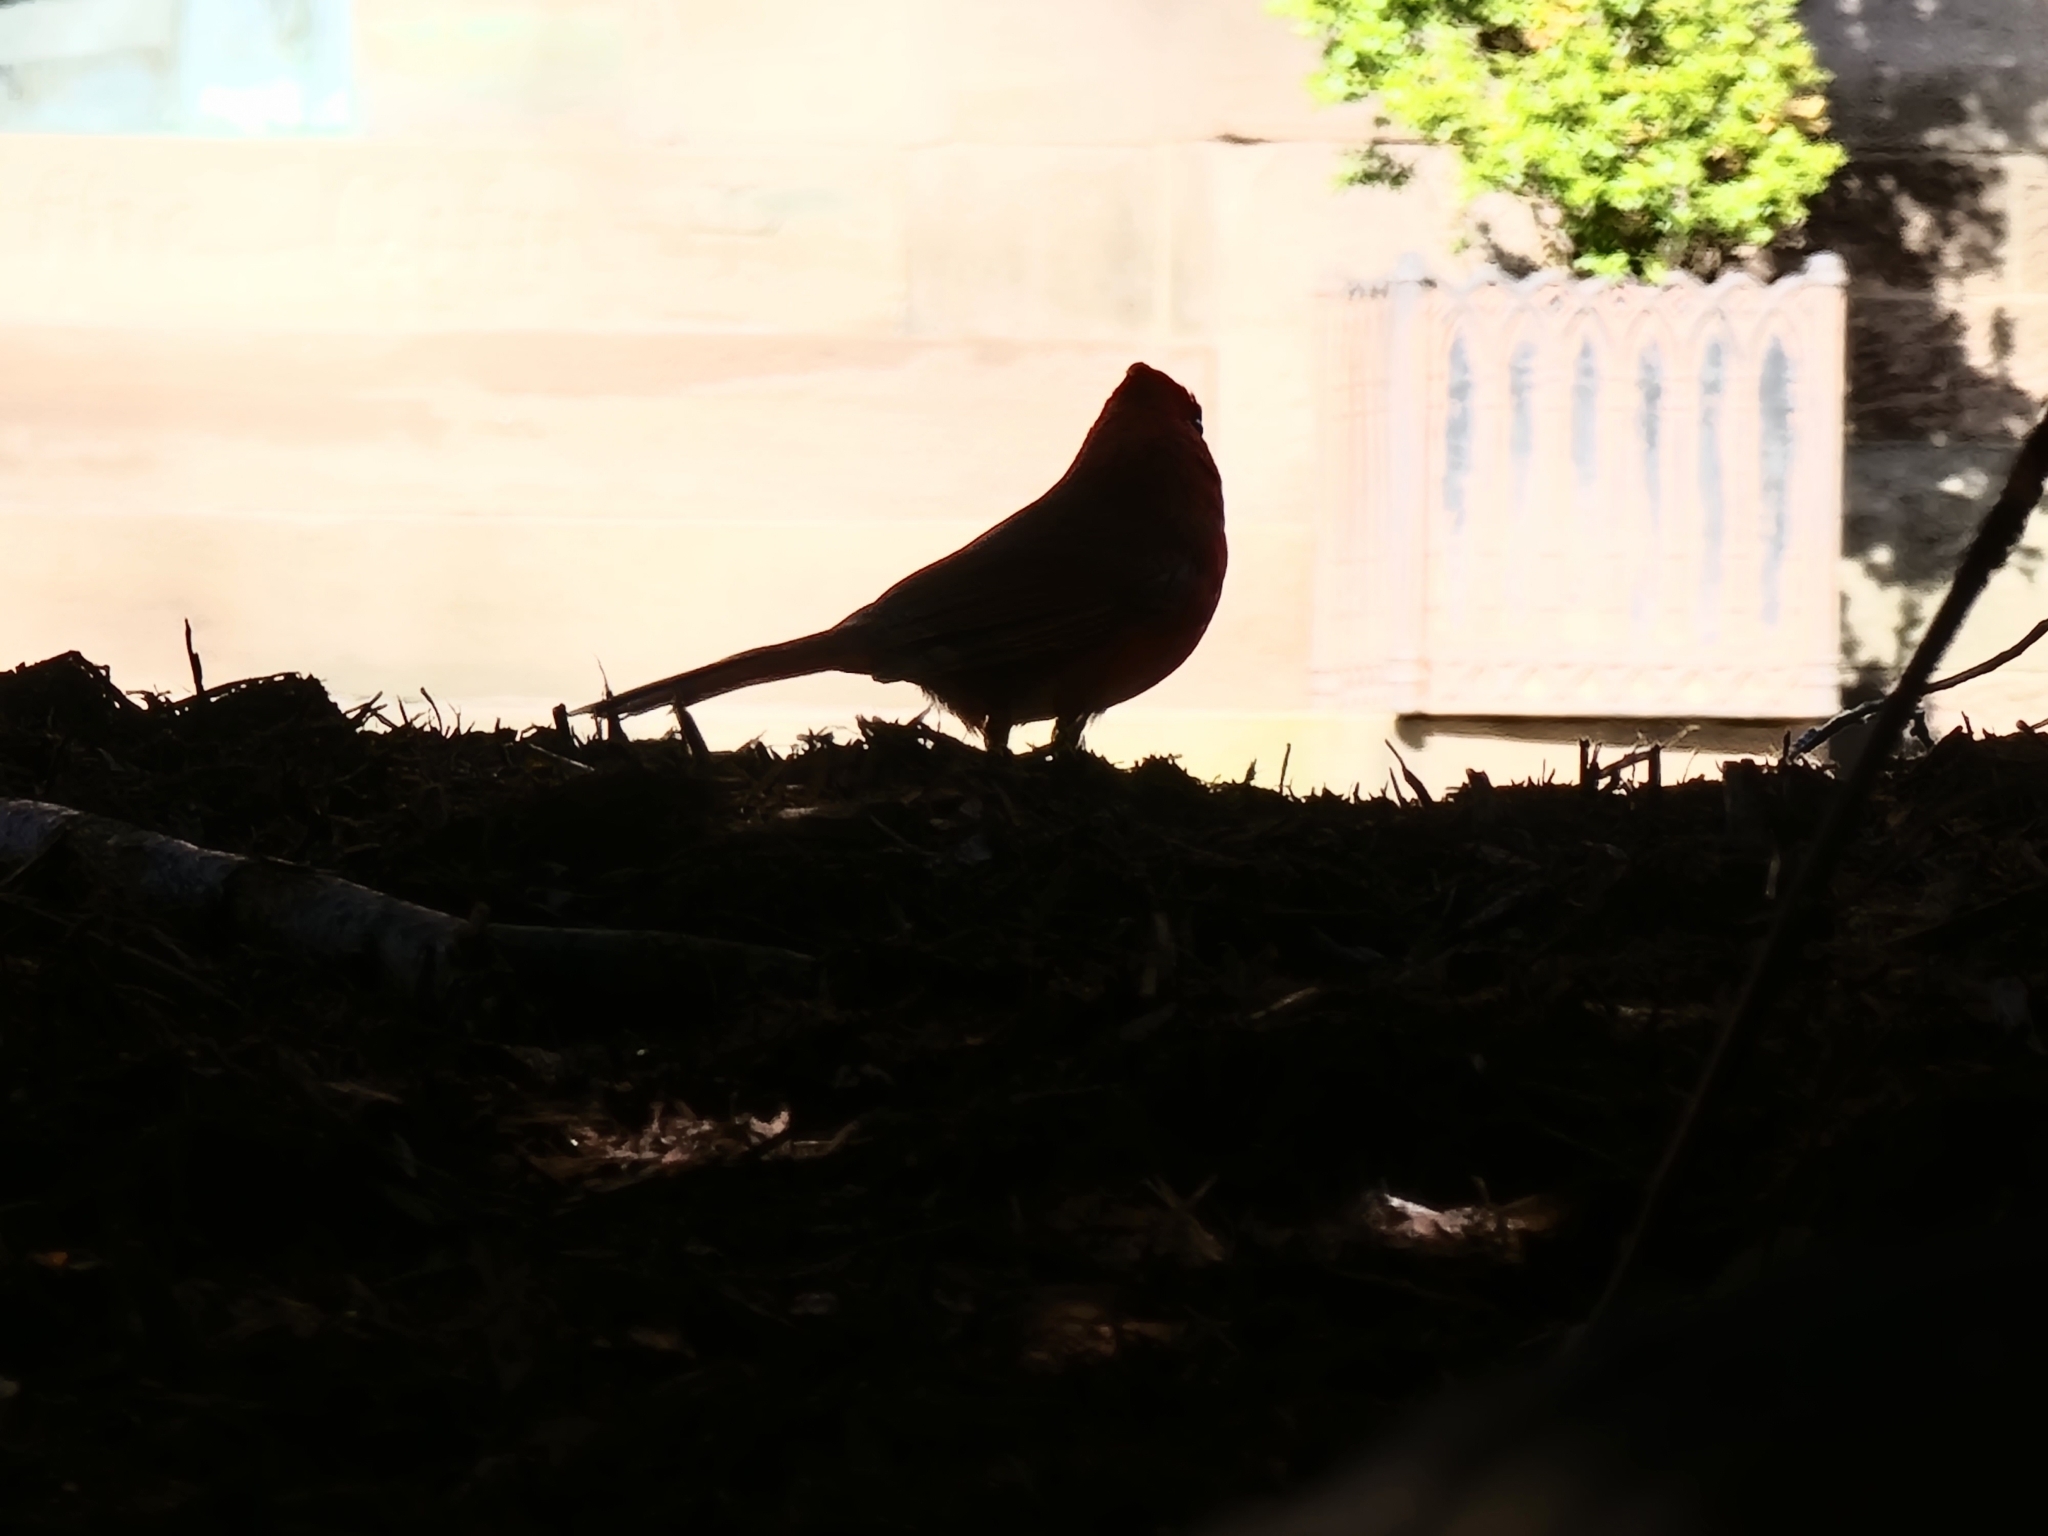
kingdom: Animalia
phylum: Chordata
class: Aves
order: Passeriformes
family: Cardinalidae
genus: Cardinalis
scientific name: Cardinalis cardinalis
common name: Northern cardinal
